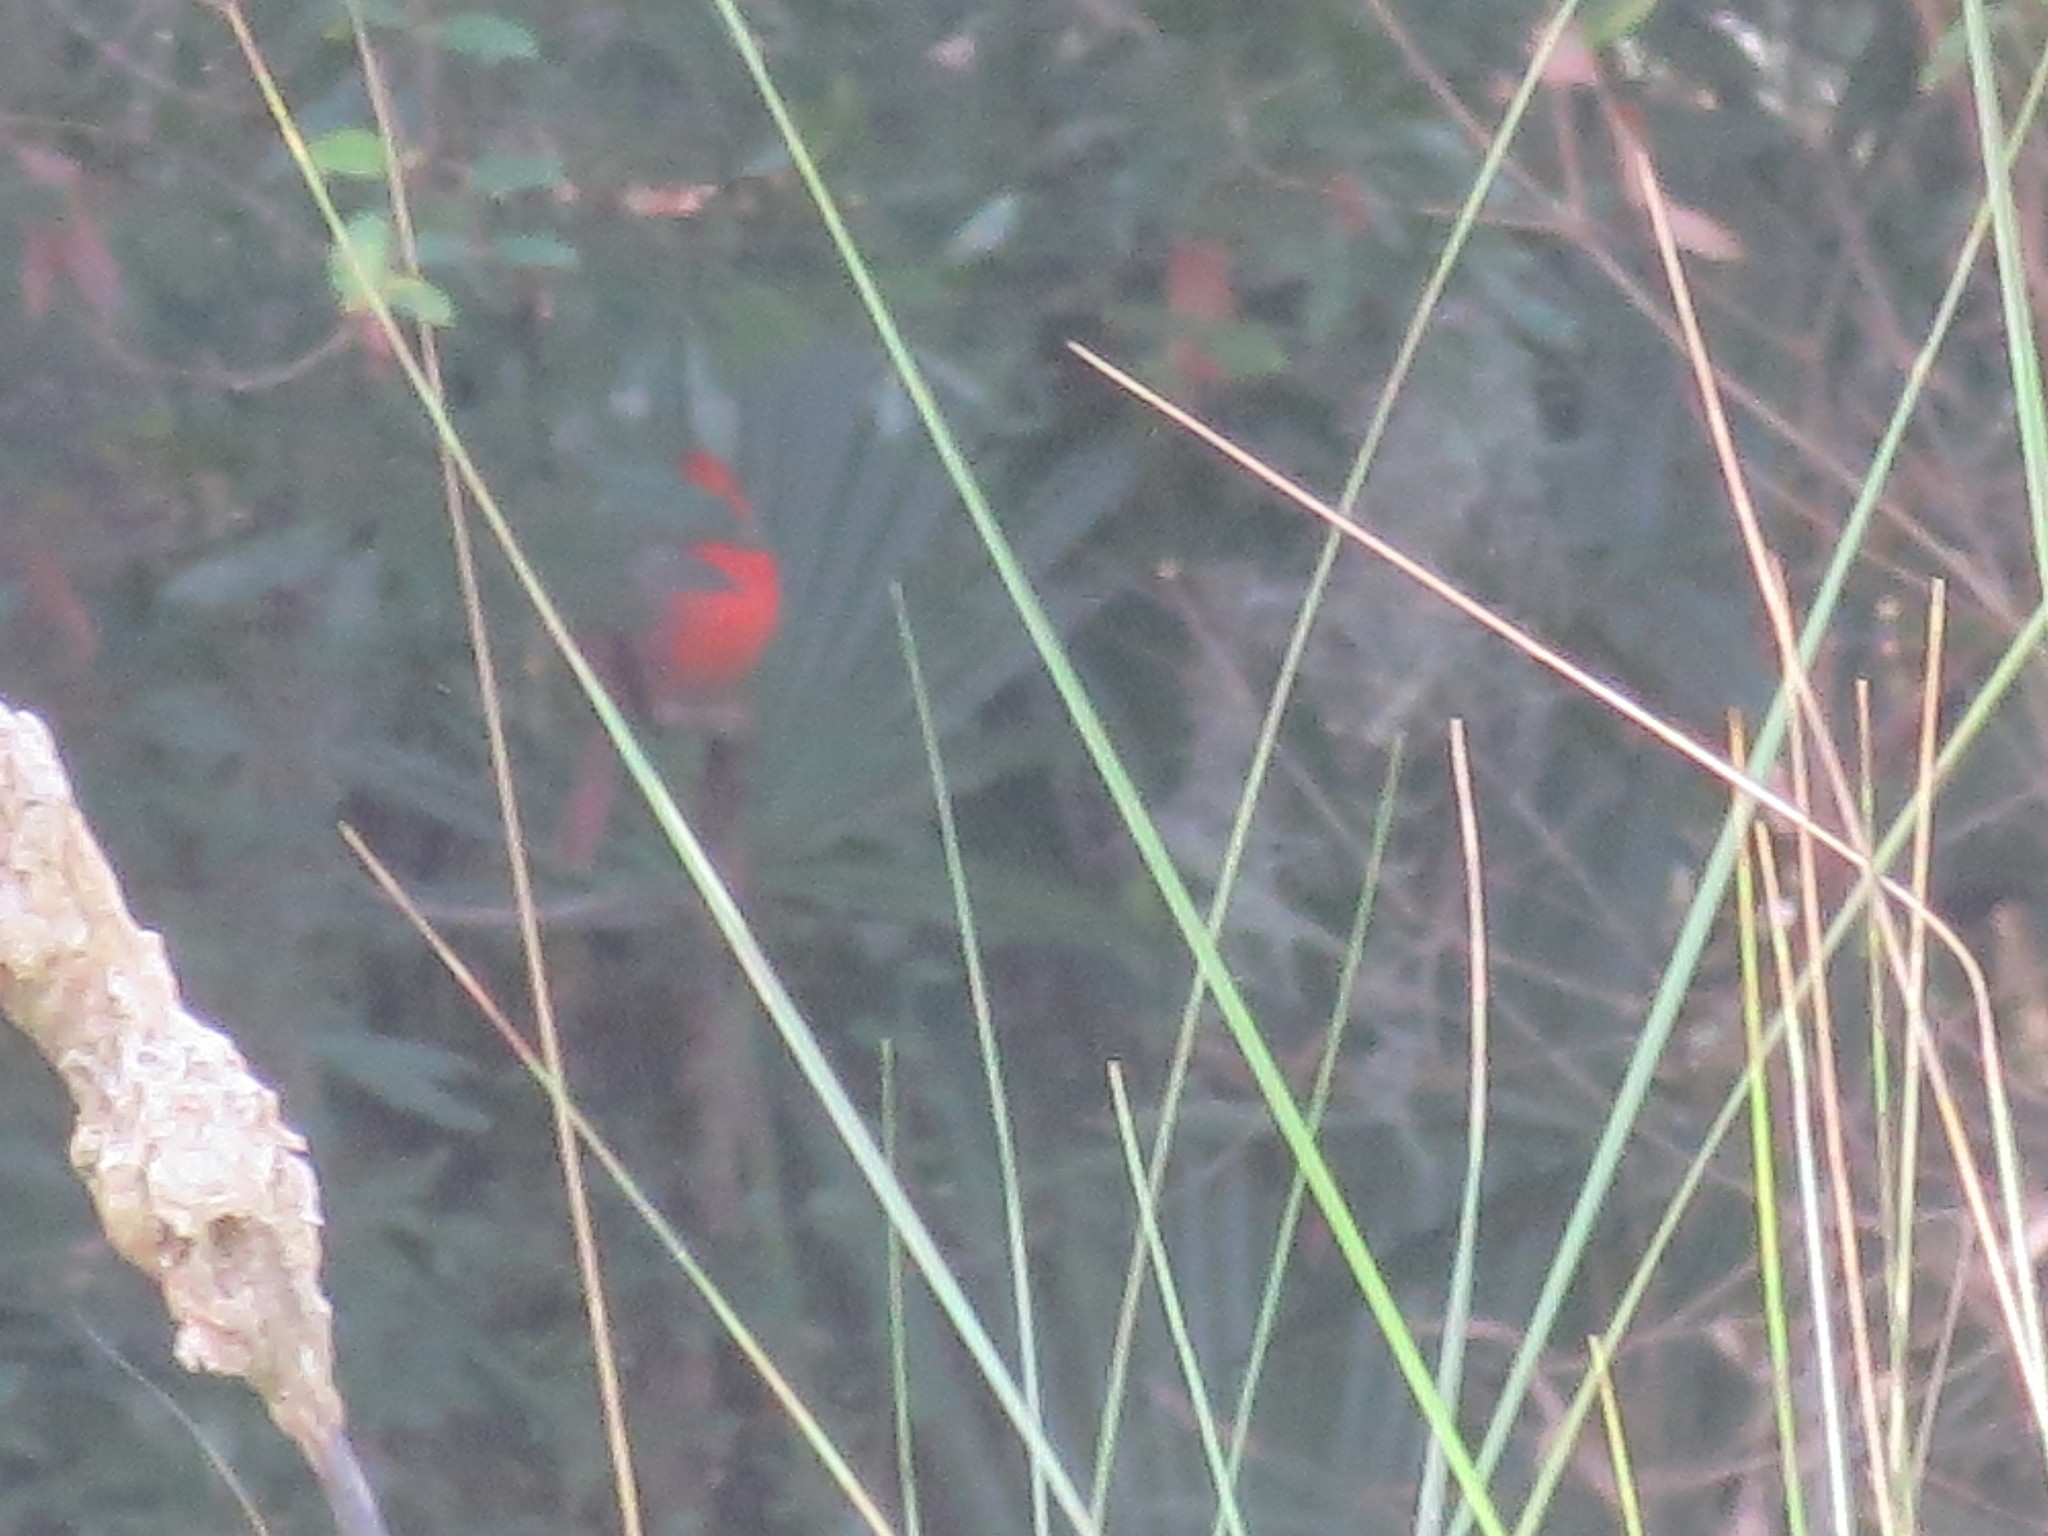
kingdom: Animalia
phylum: Chordata
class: Aves
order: Passeriformes
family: Cardinalidae
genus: Cardinalis
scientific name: Cardinalis cardinalis
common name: Northern cardinal
